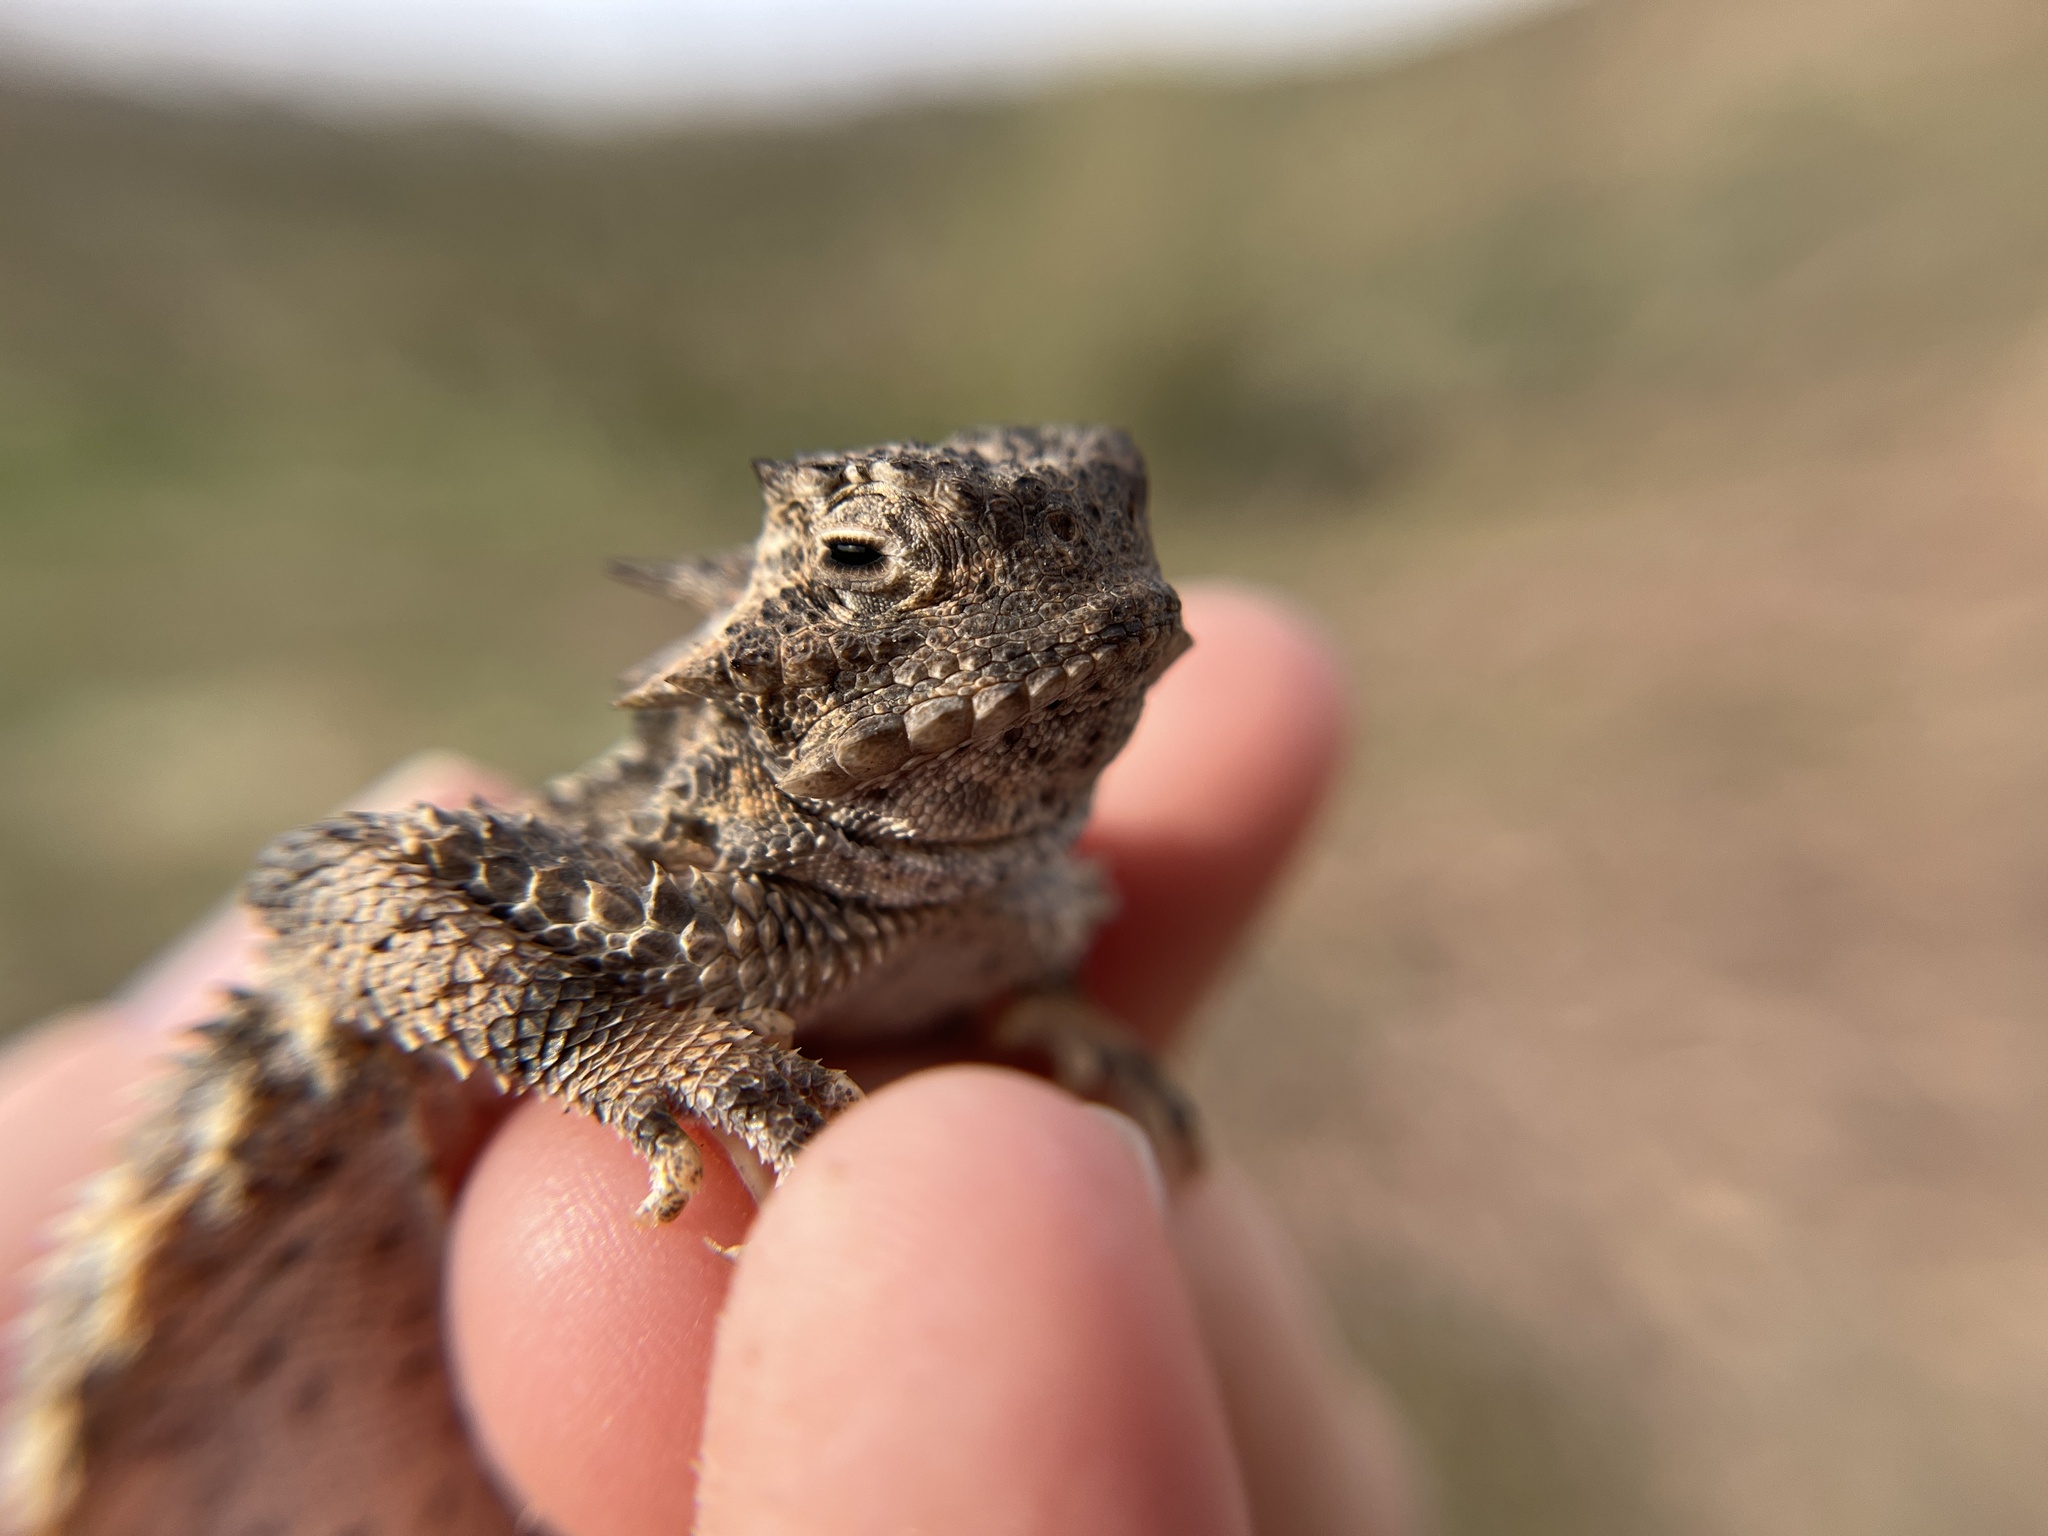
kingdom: Animalia
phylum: Chordata
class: Squamata
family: Phrynosomatidae
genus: Phrynosoma
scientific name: Phrynosoma platyrhinos
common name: Desert horned lizard
